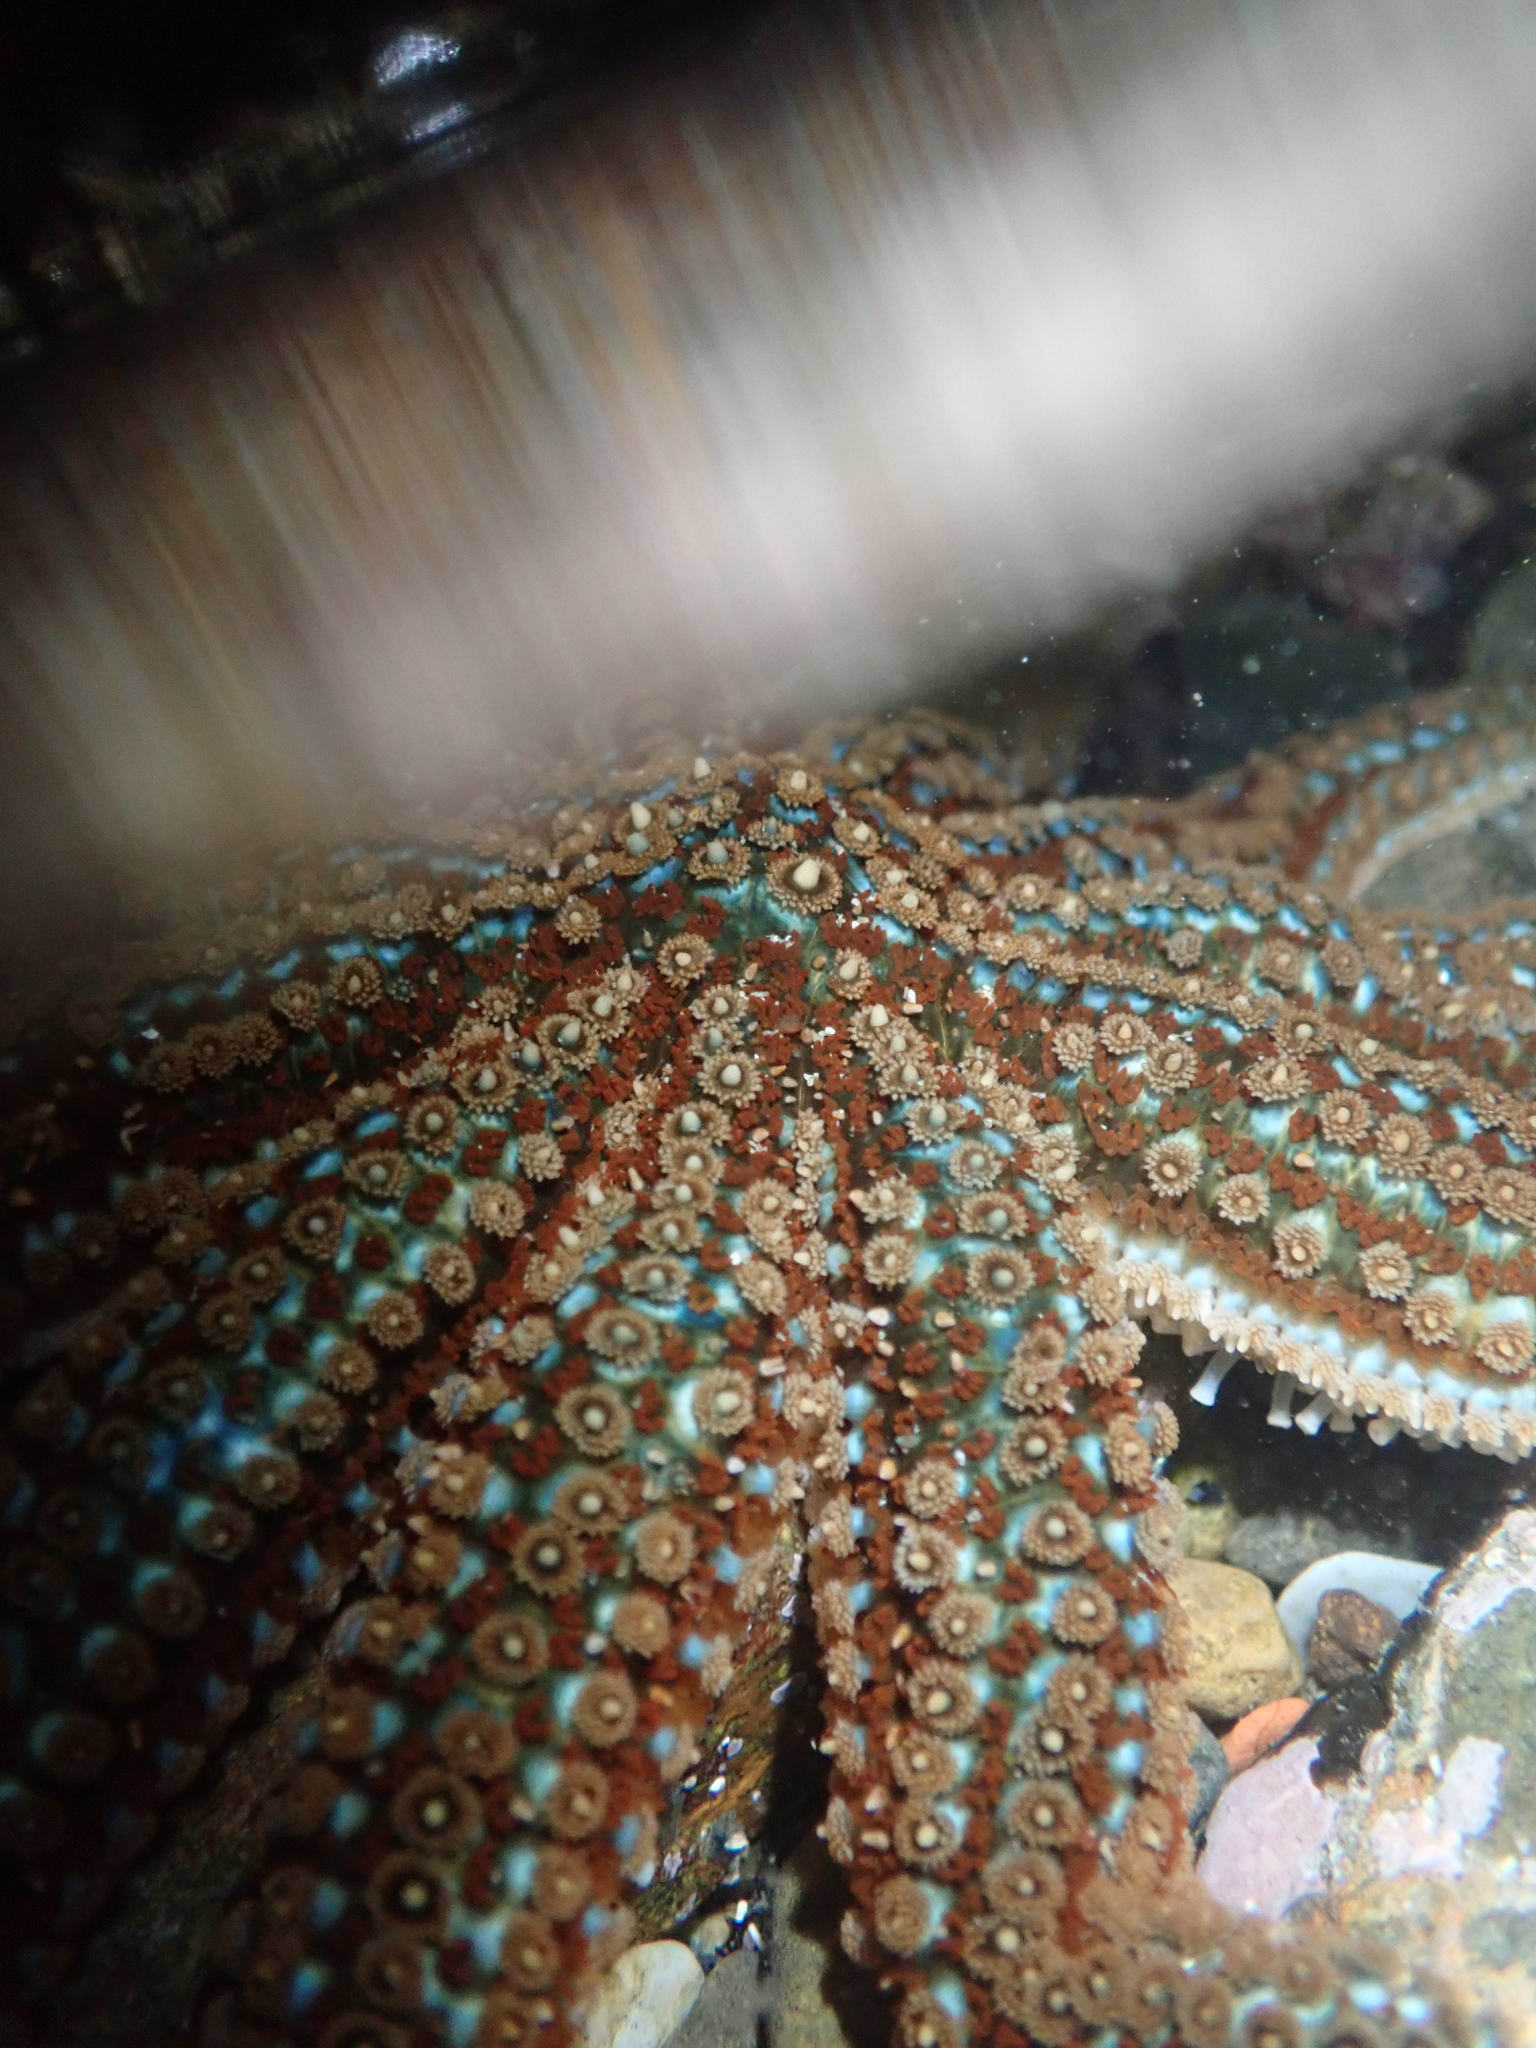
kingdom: Animalia
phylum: Echinodermata
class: Asteroidea
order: Forcipulatida
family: Asteriidae
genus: Coscinasterias
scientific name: Coscinasterias muricata
